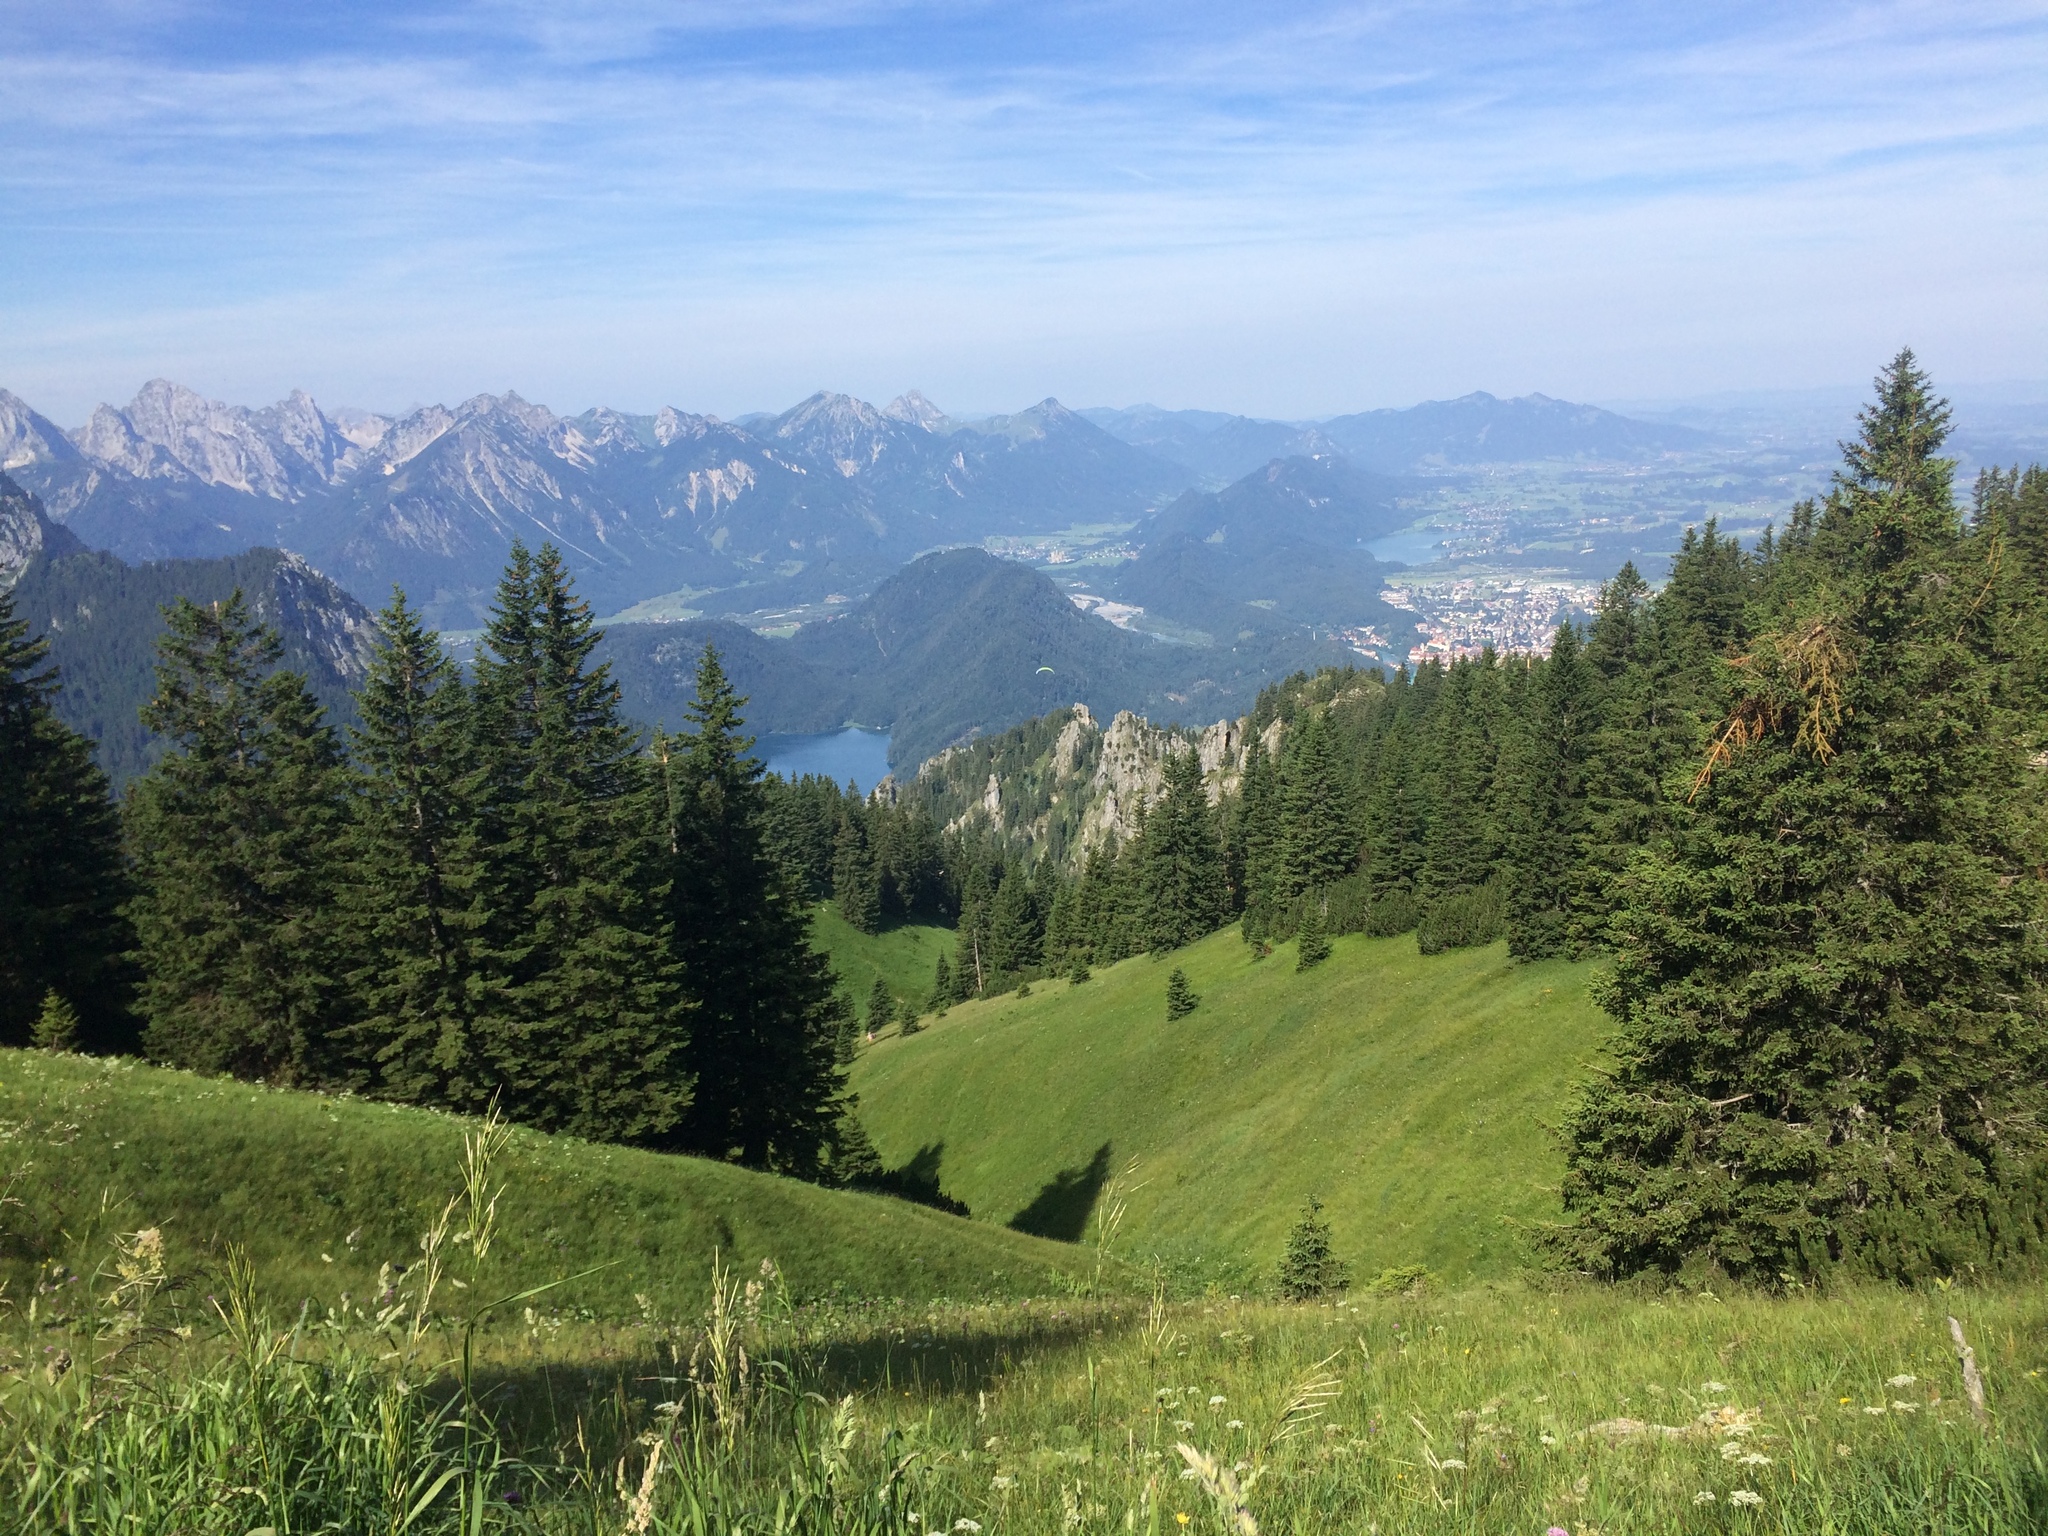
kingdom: Plantae
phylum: Tracheophyta
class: Pinopsida
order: Pinales
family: Pinaceae
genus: Picea
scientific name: Picea abies
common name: Norway spruce
